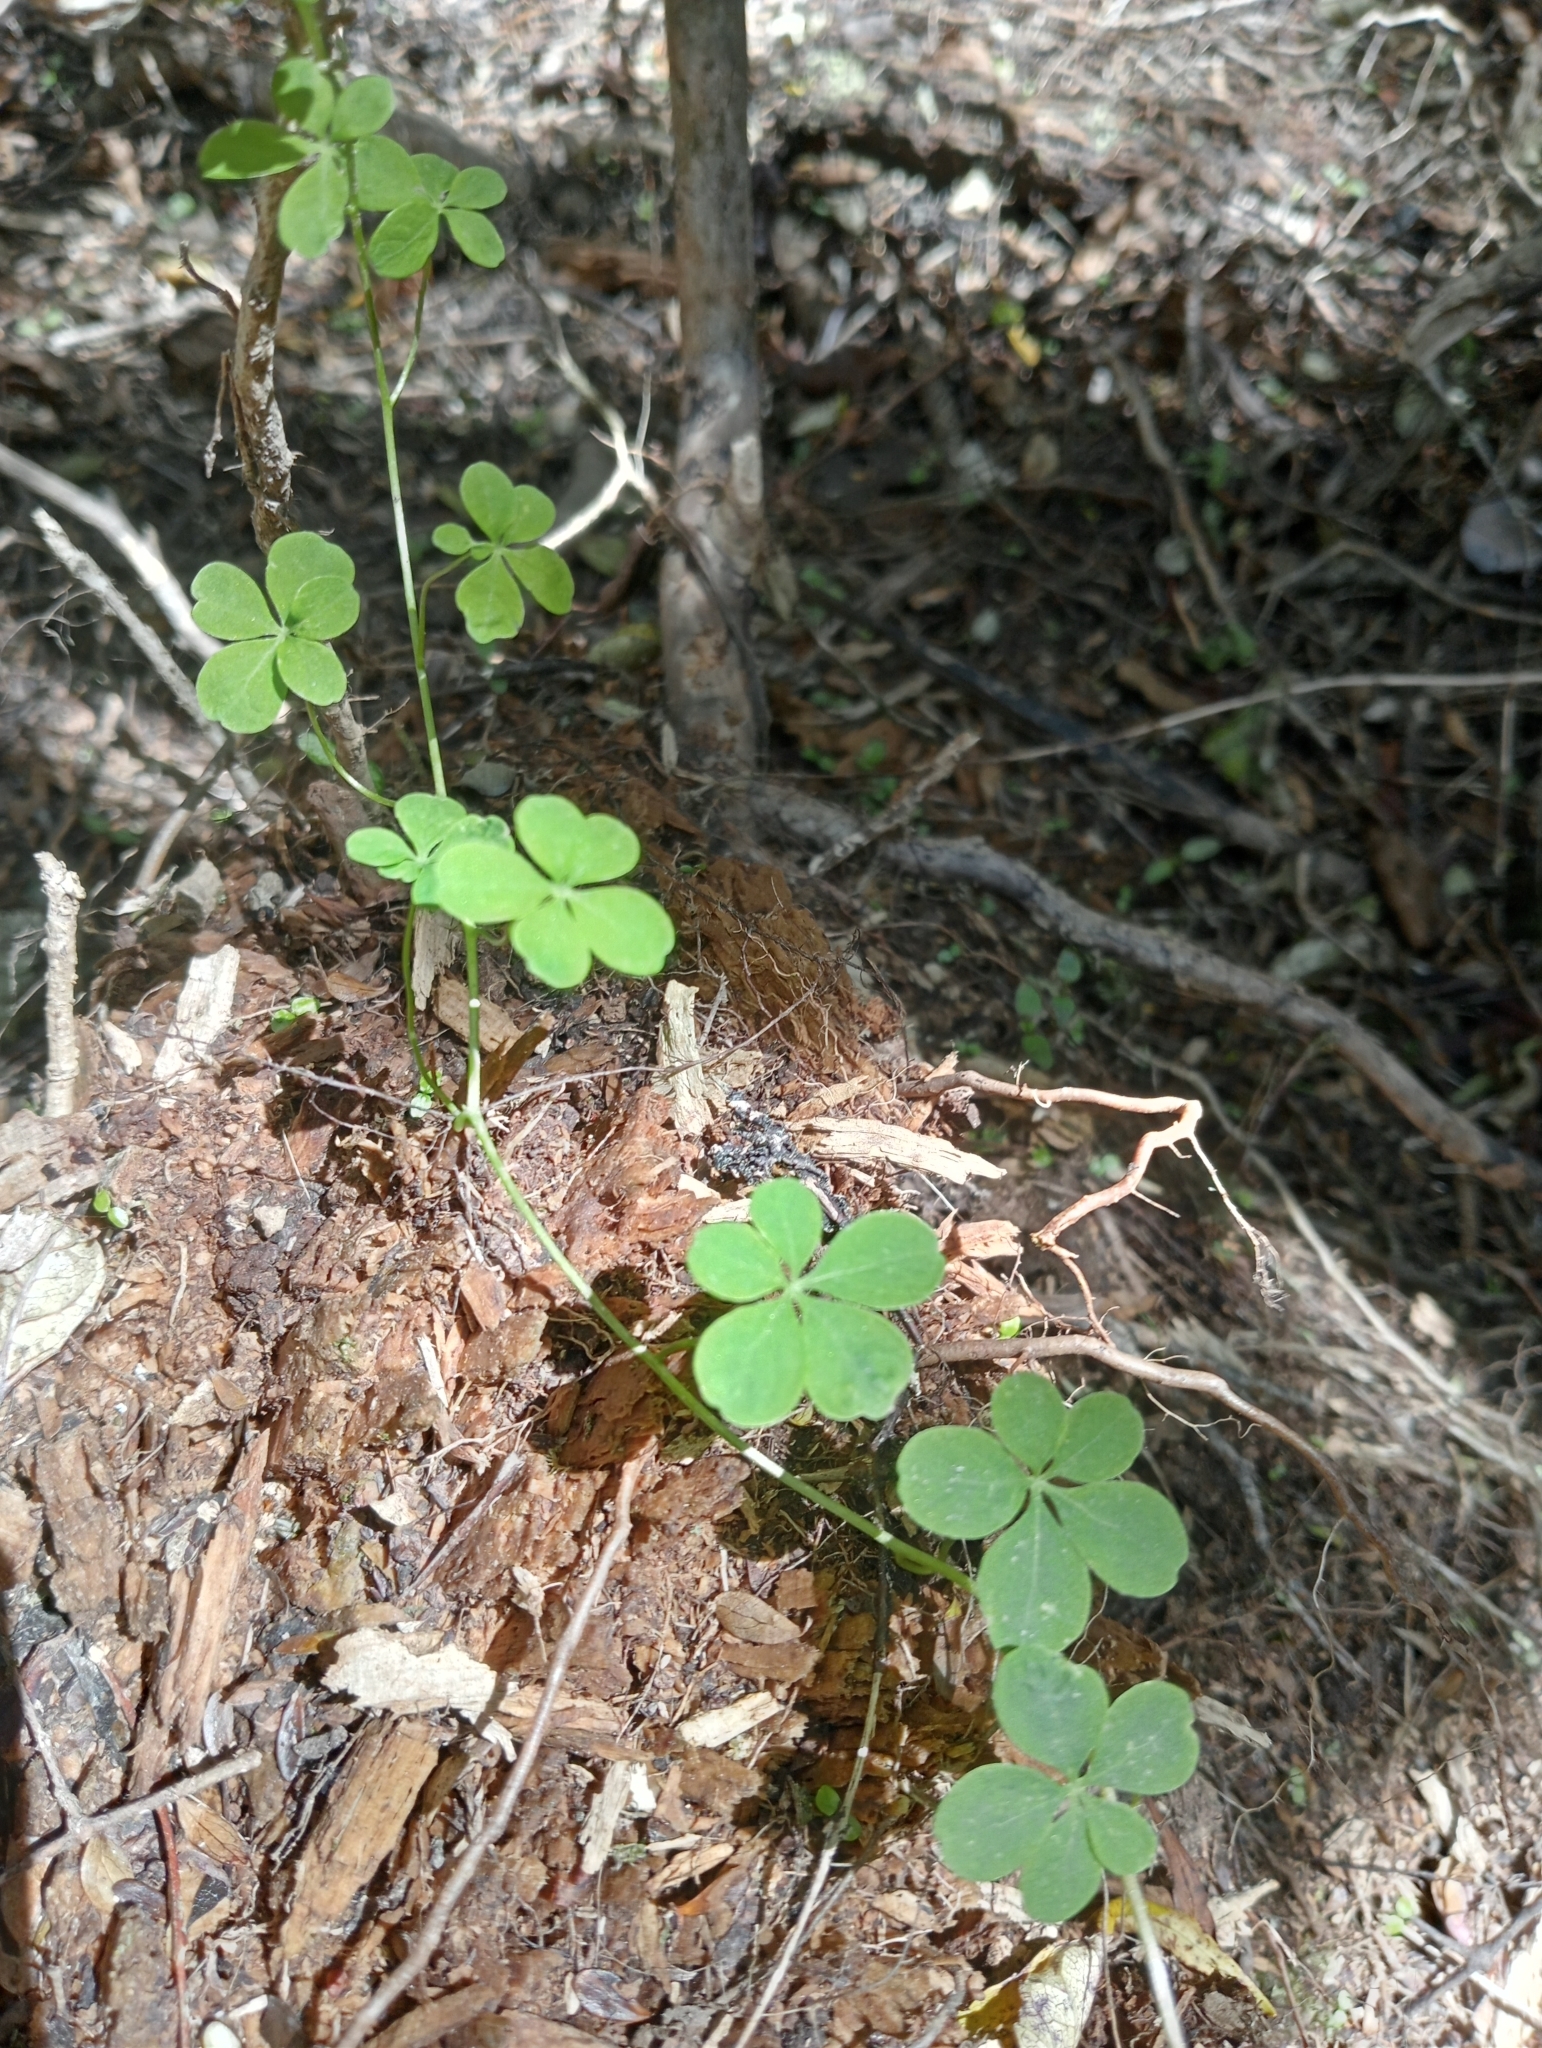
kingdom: Plantae
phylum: Tracheophyta
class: Magnoliopsida
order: Brassicales
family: Tropaeolaceae
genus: Tropaeolum
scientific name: Tropaeolum speciosum
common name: Flame nasturtium
